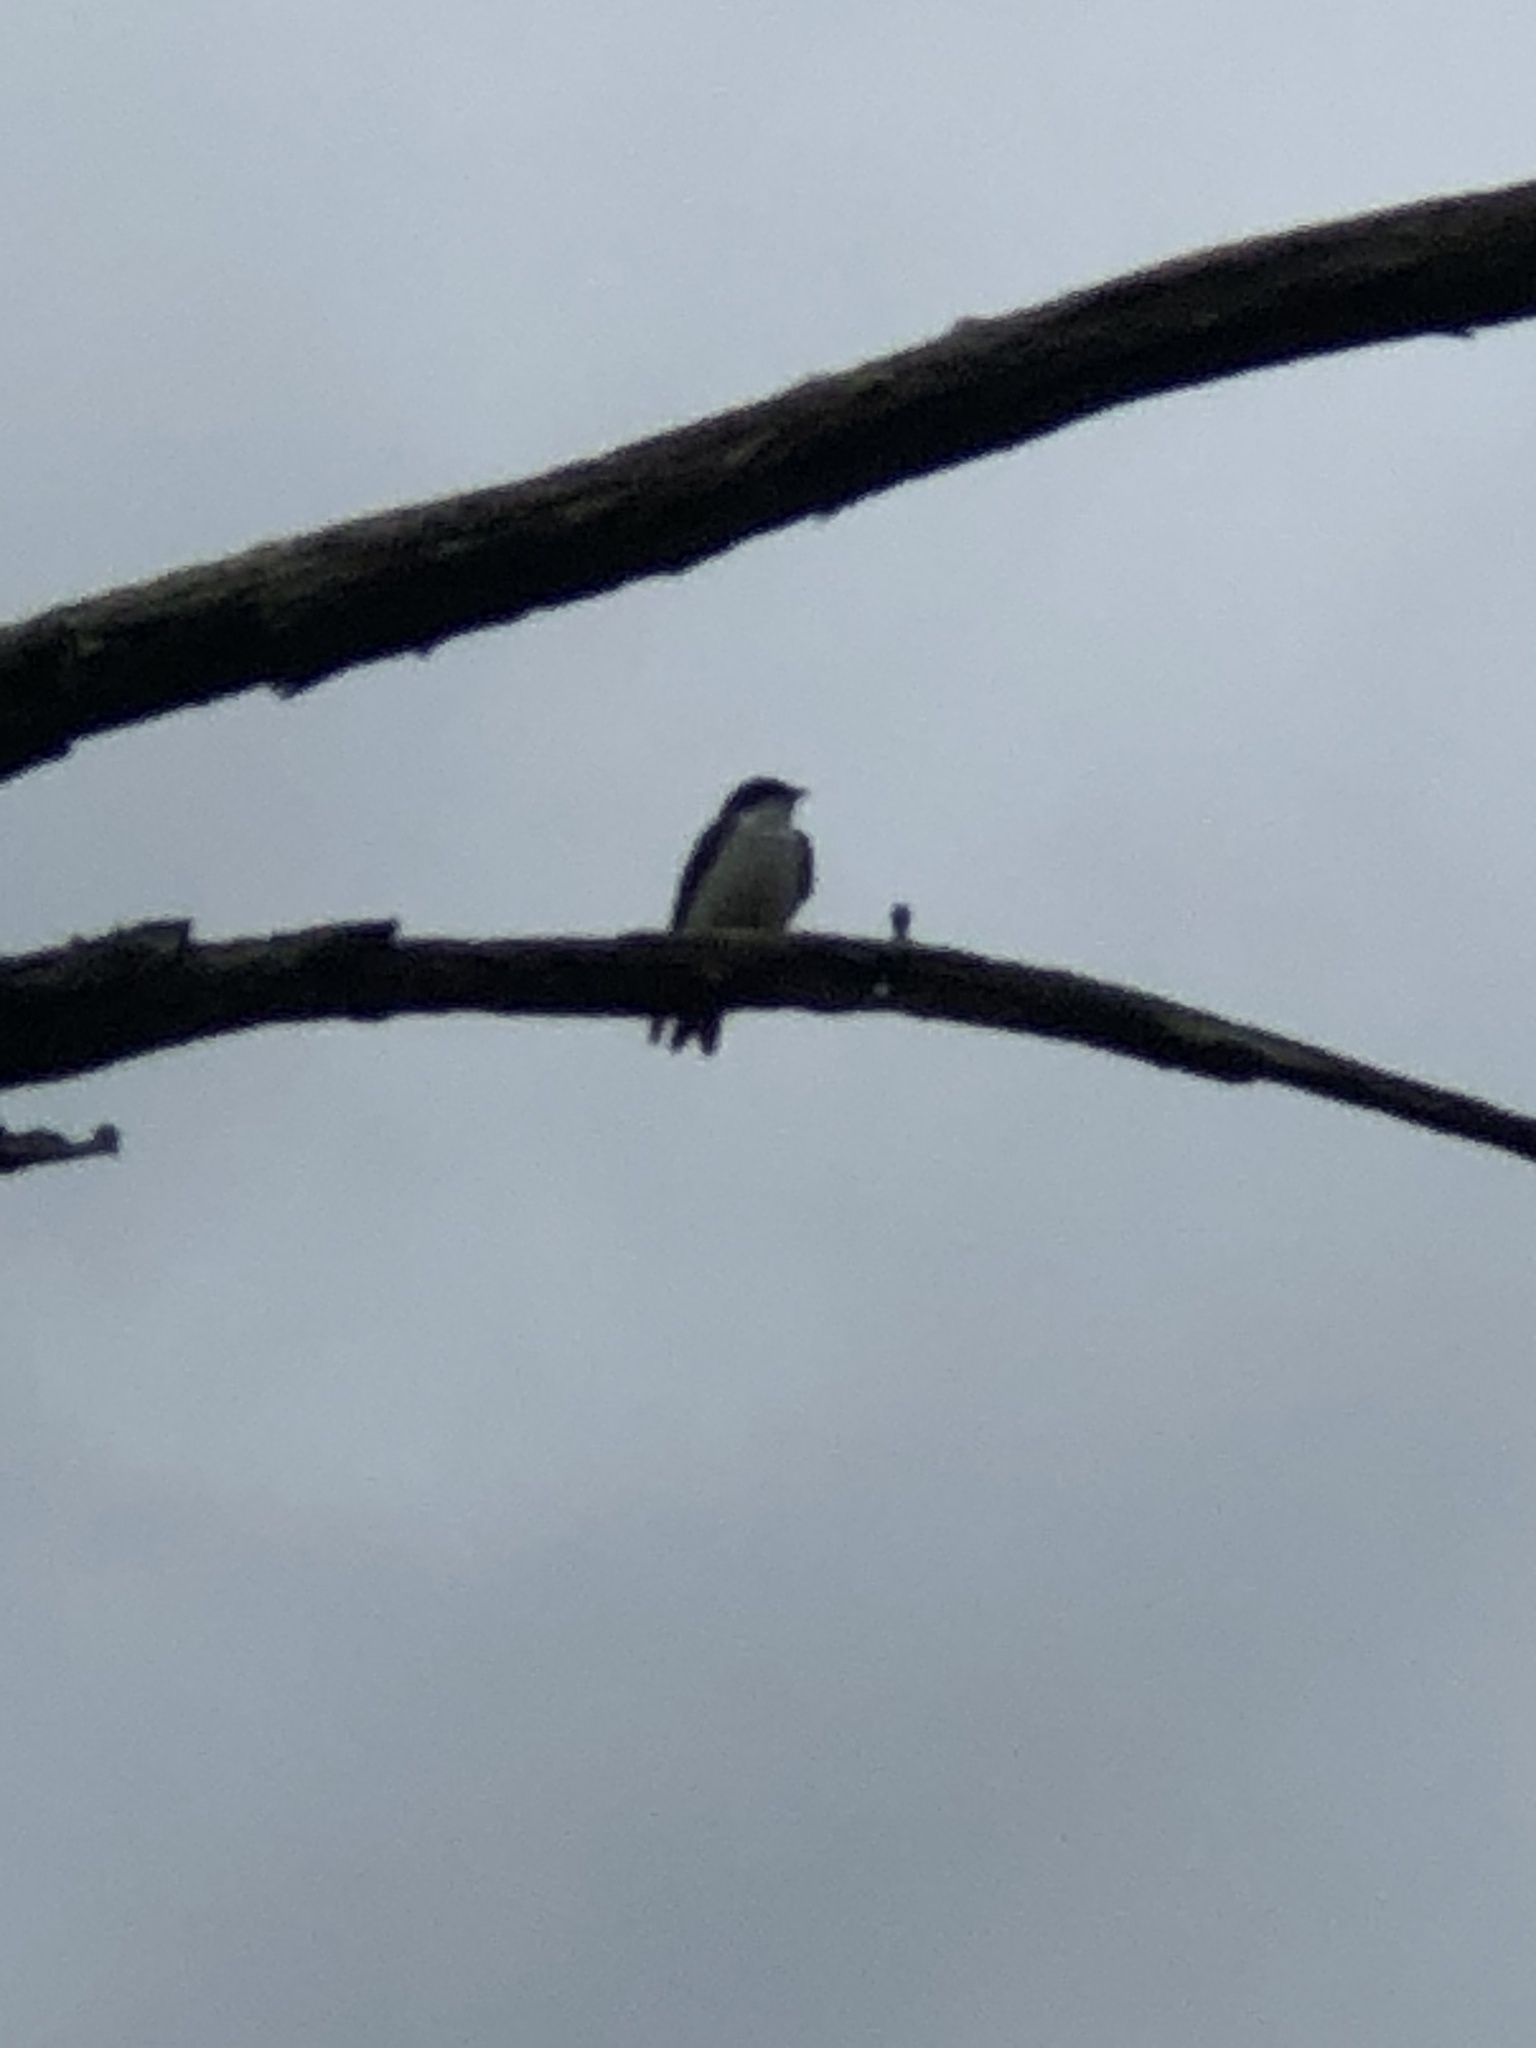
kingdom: Animalia
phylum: Chordata
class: Aves
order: Passeriformes
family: Hirundinidae
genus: Tachycineta
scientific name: Tachycineta bicolor
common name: Tree swallow
